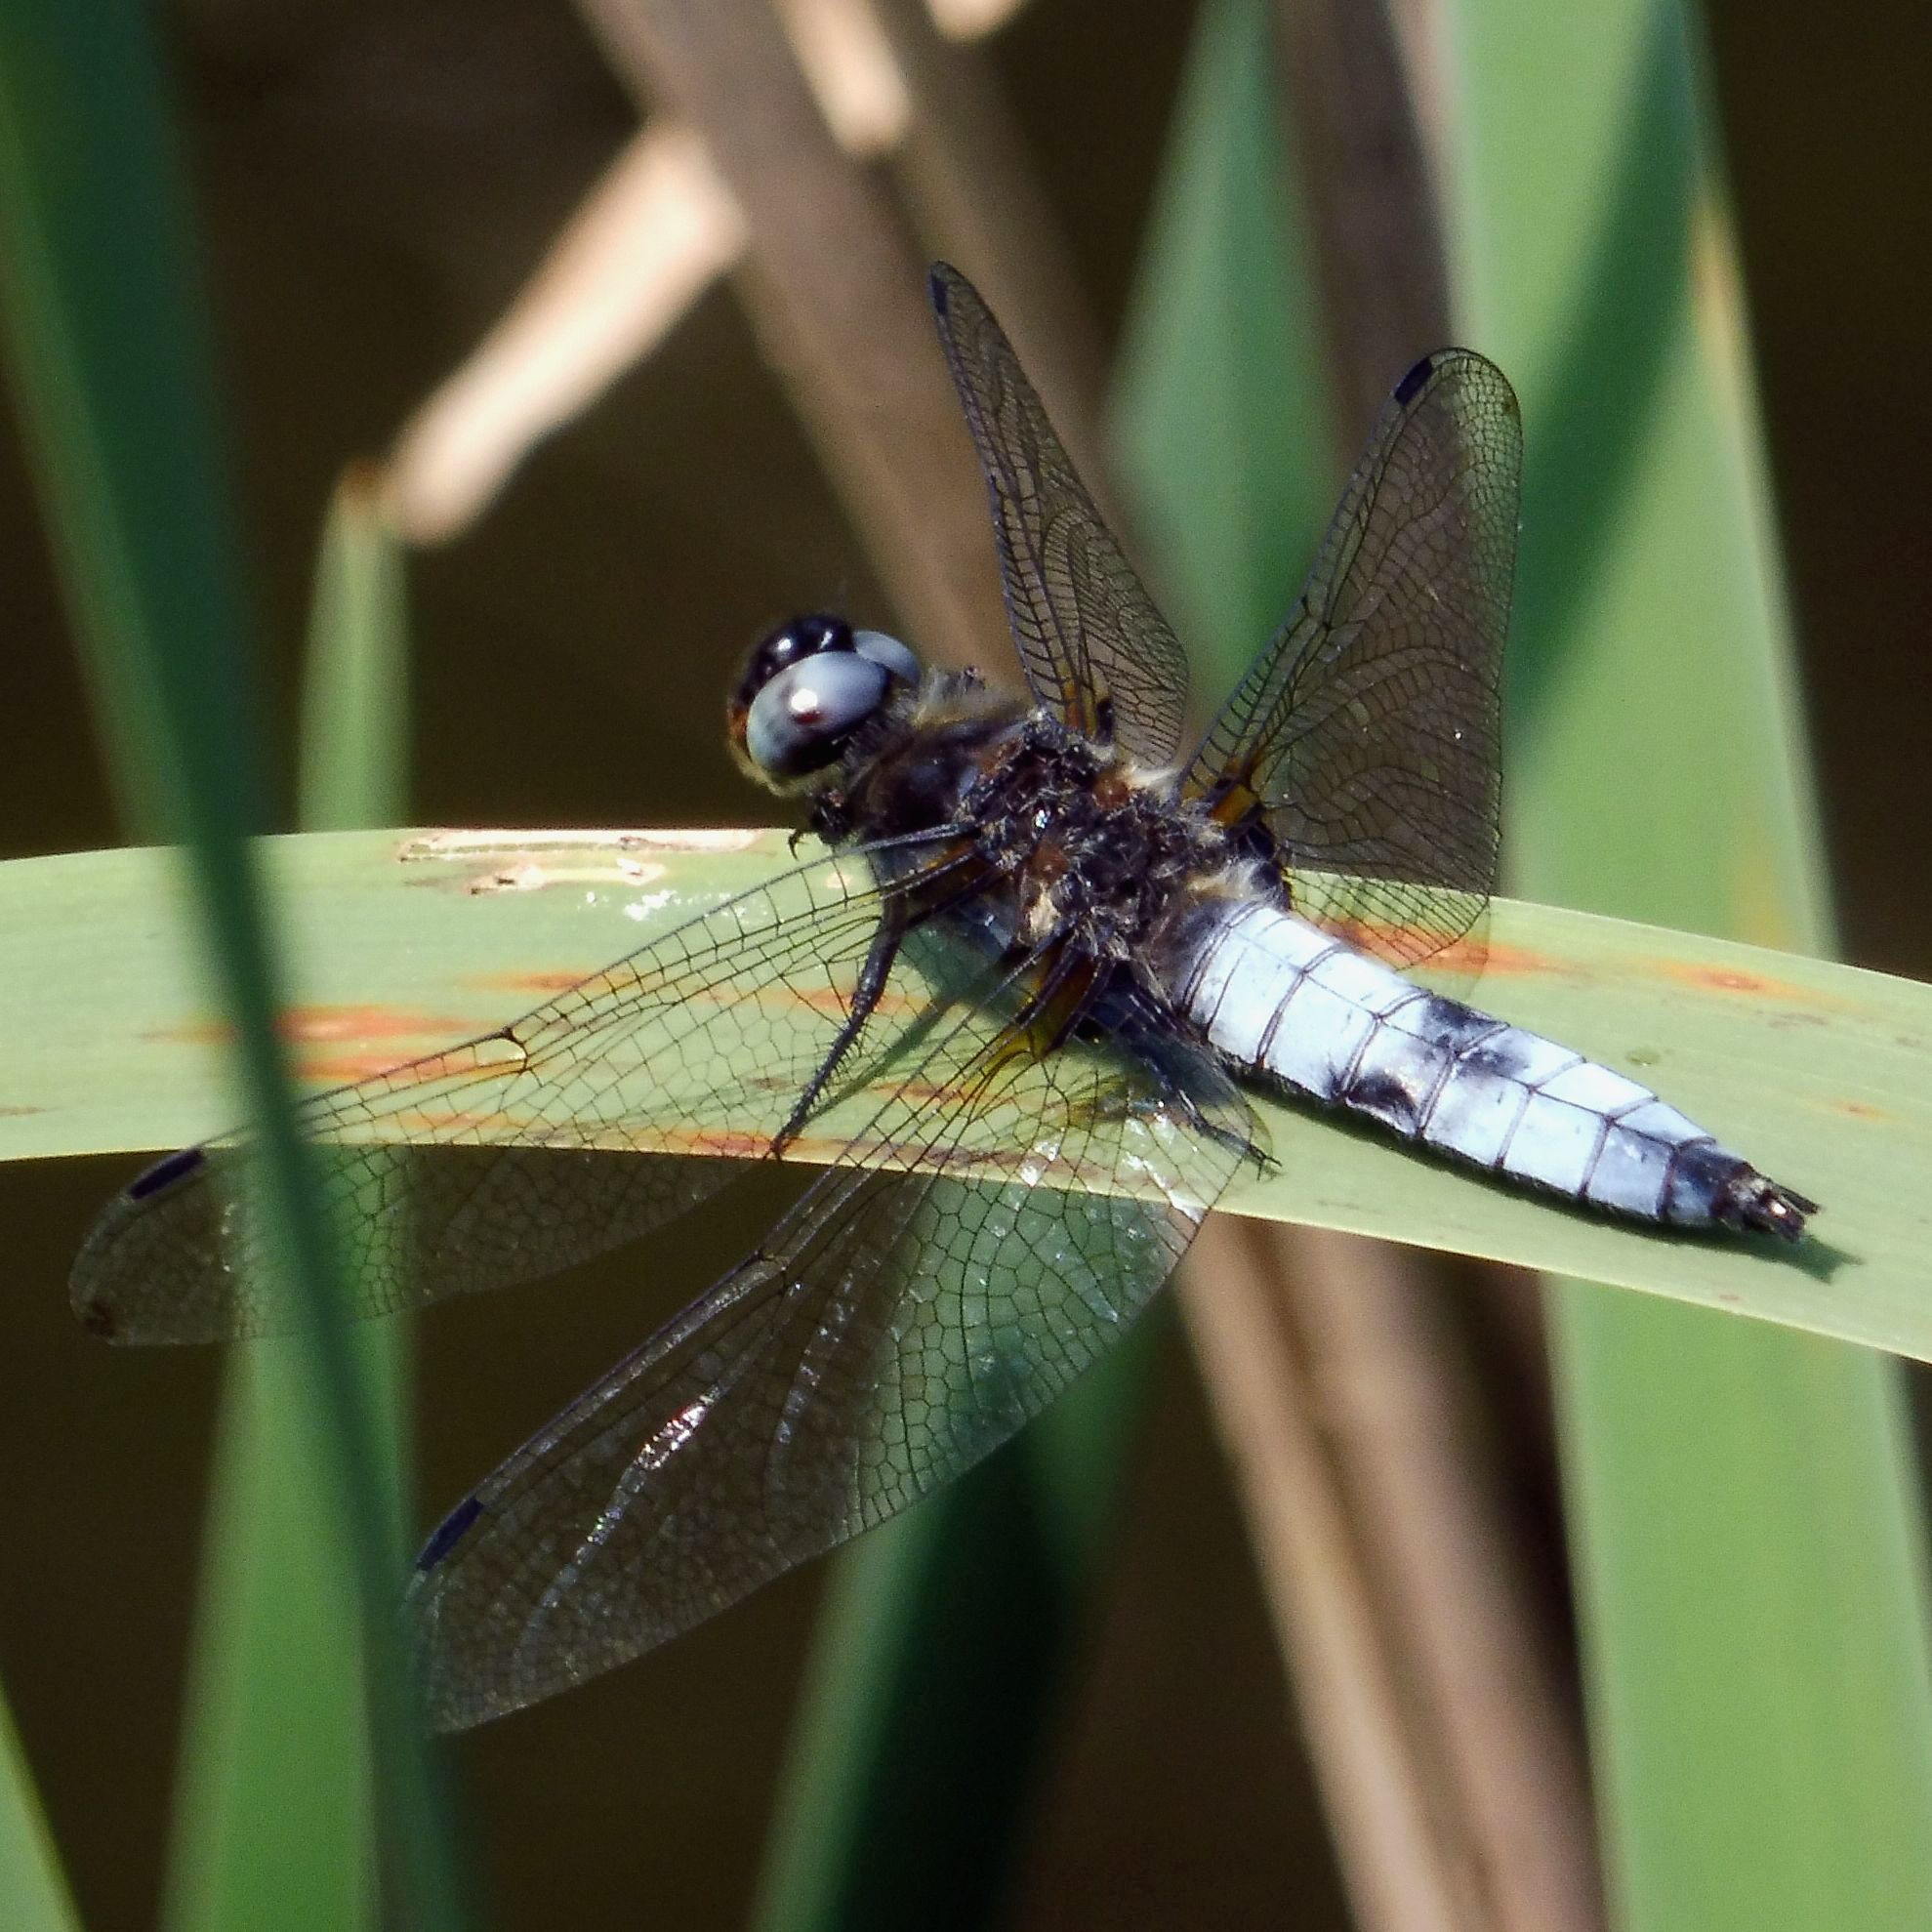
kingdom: Animalia
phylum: Arthropoda
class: Insecta
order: Odonata
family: Libellulidae
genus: Libellula
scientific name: Libellula fulva
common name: Blue chaser
